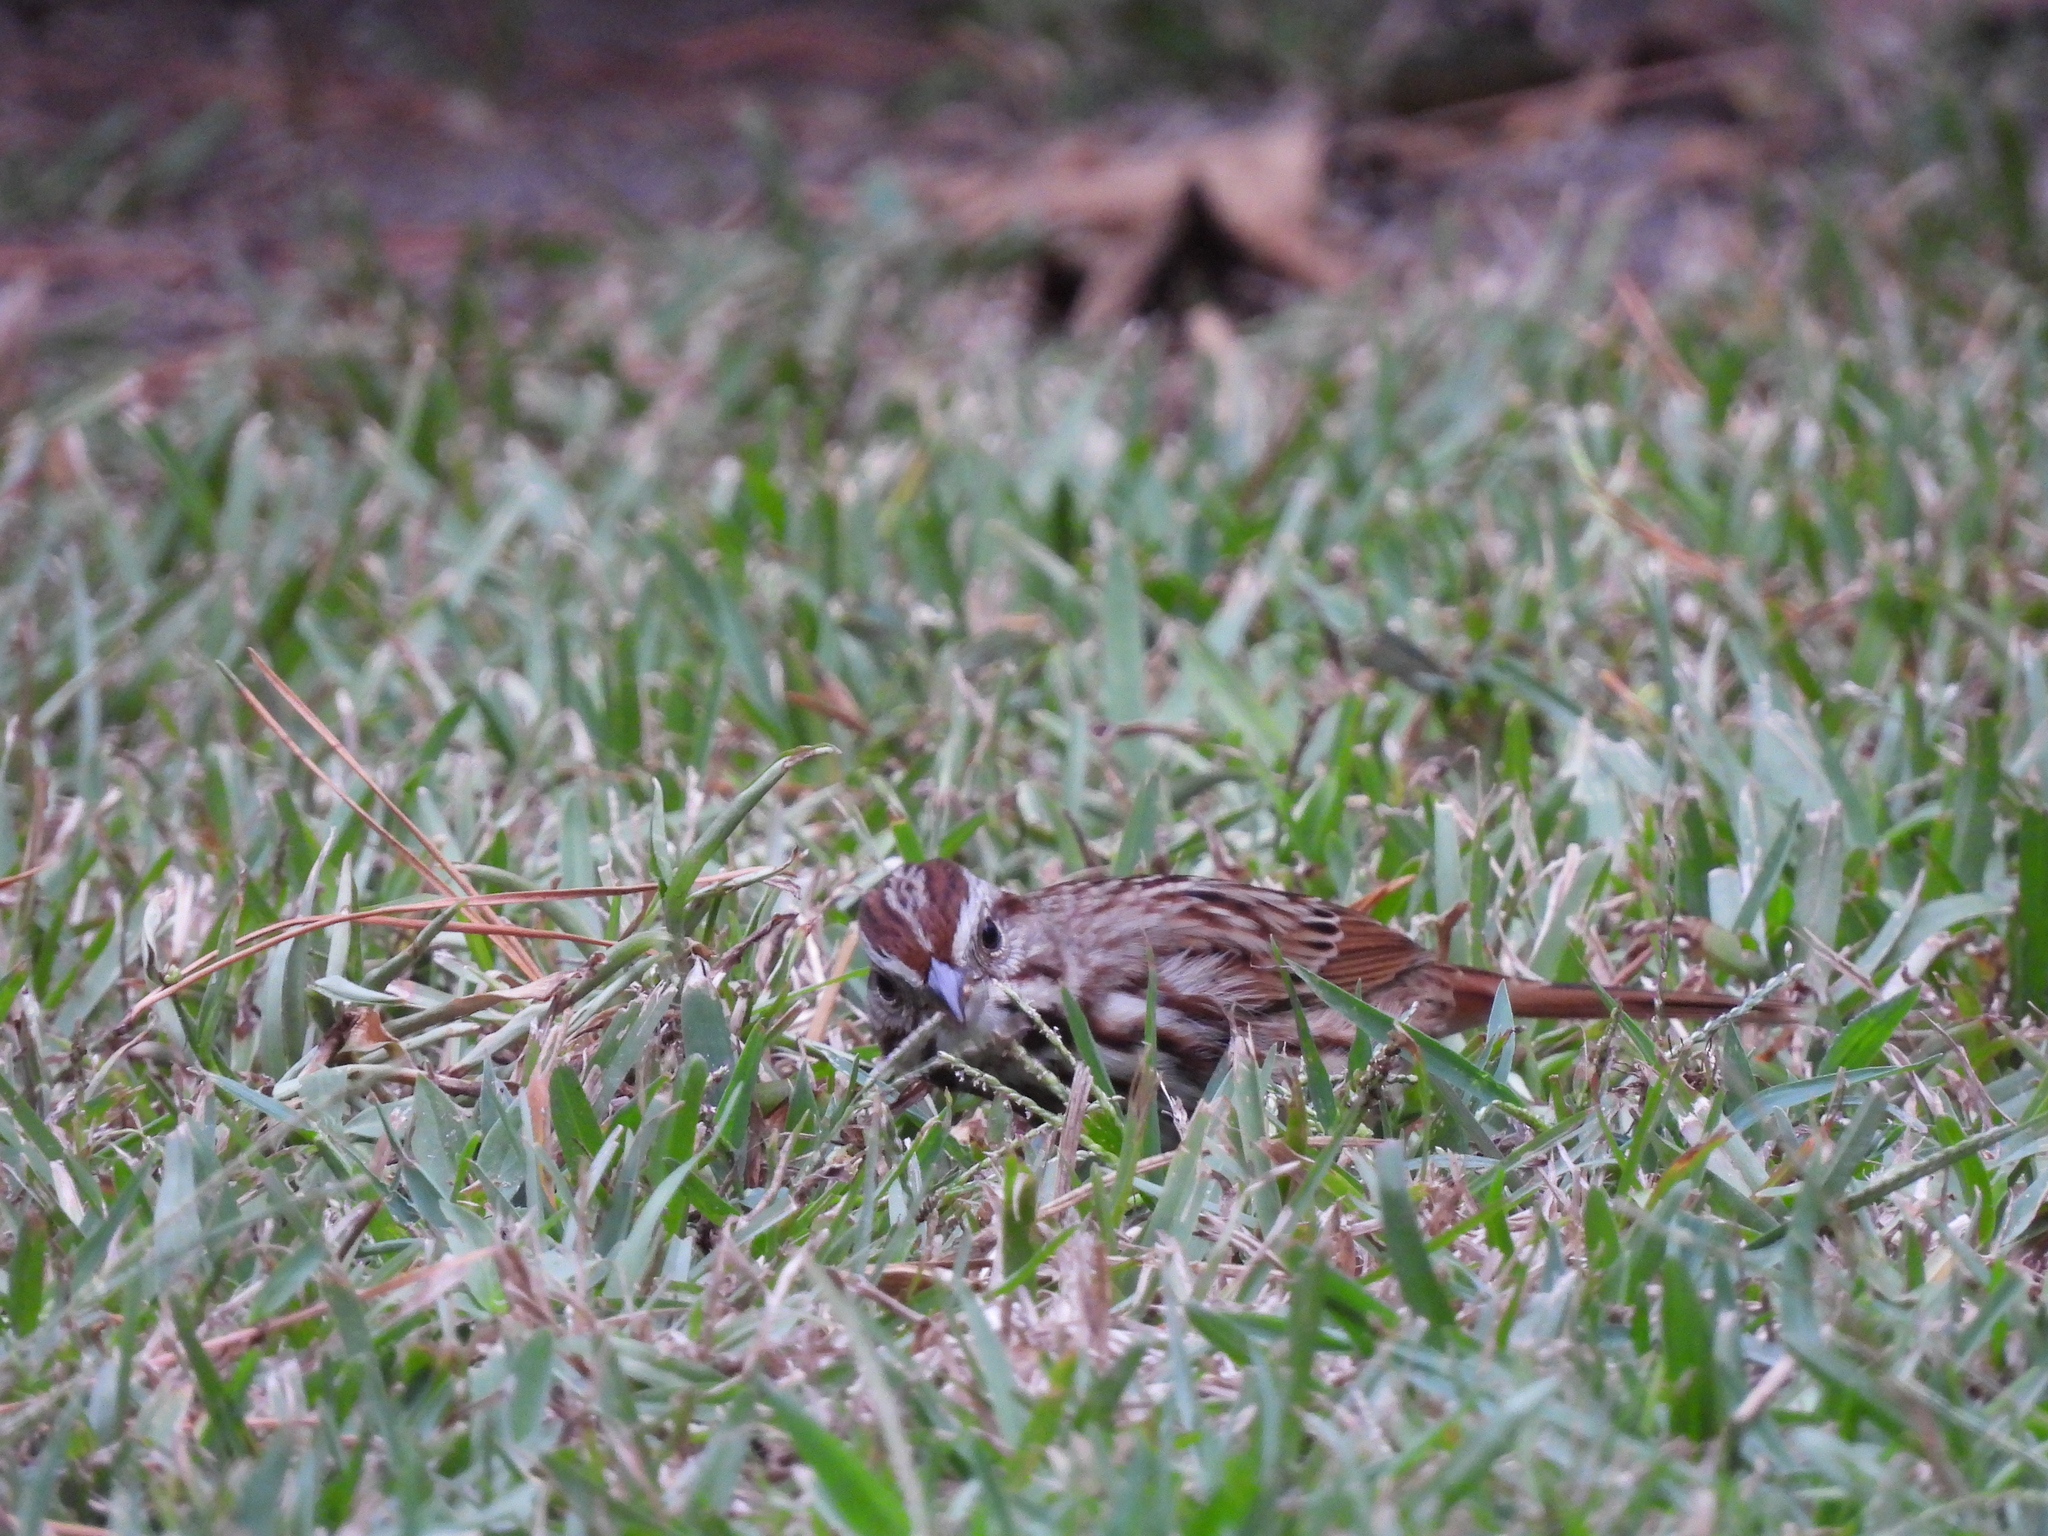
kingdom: Animalia
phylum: Chordata
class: Aves
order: Passeriformes
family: Passerellidae
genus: Melospiza
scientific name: Melospiza melodia
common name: Song sparrow
